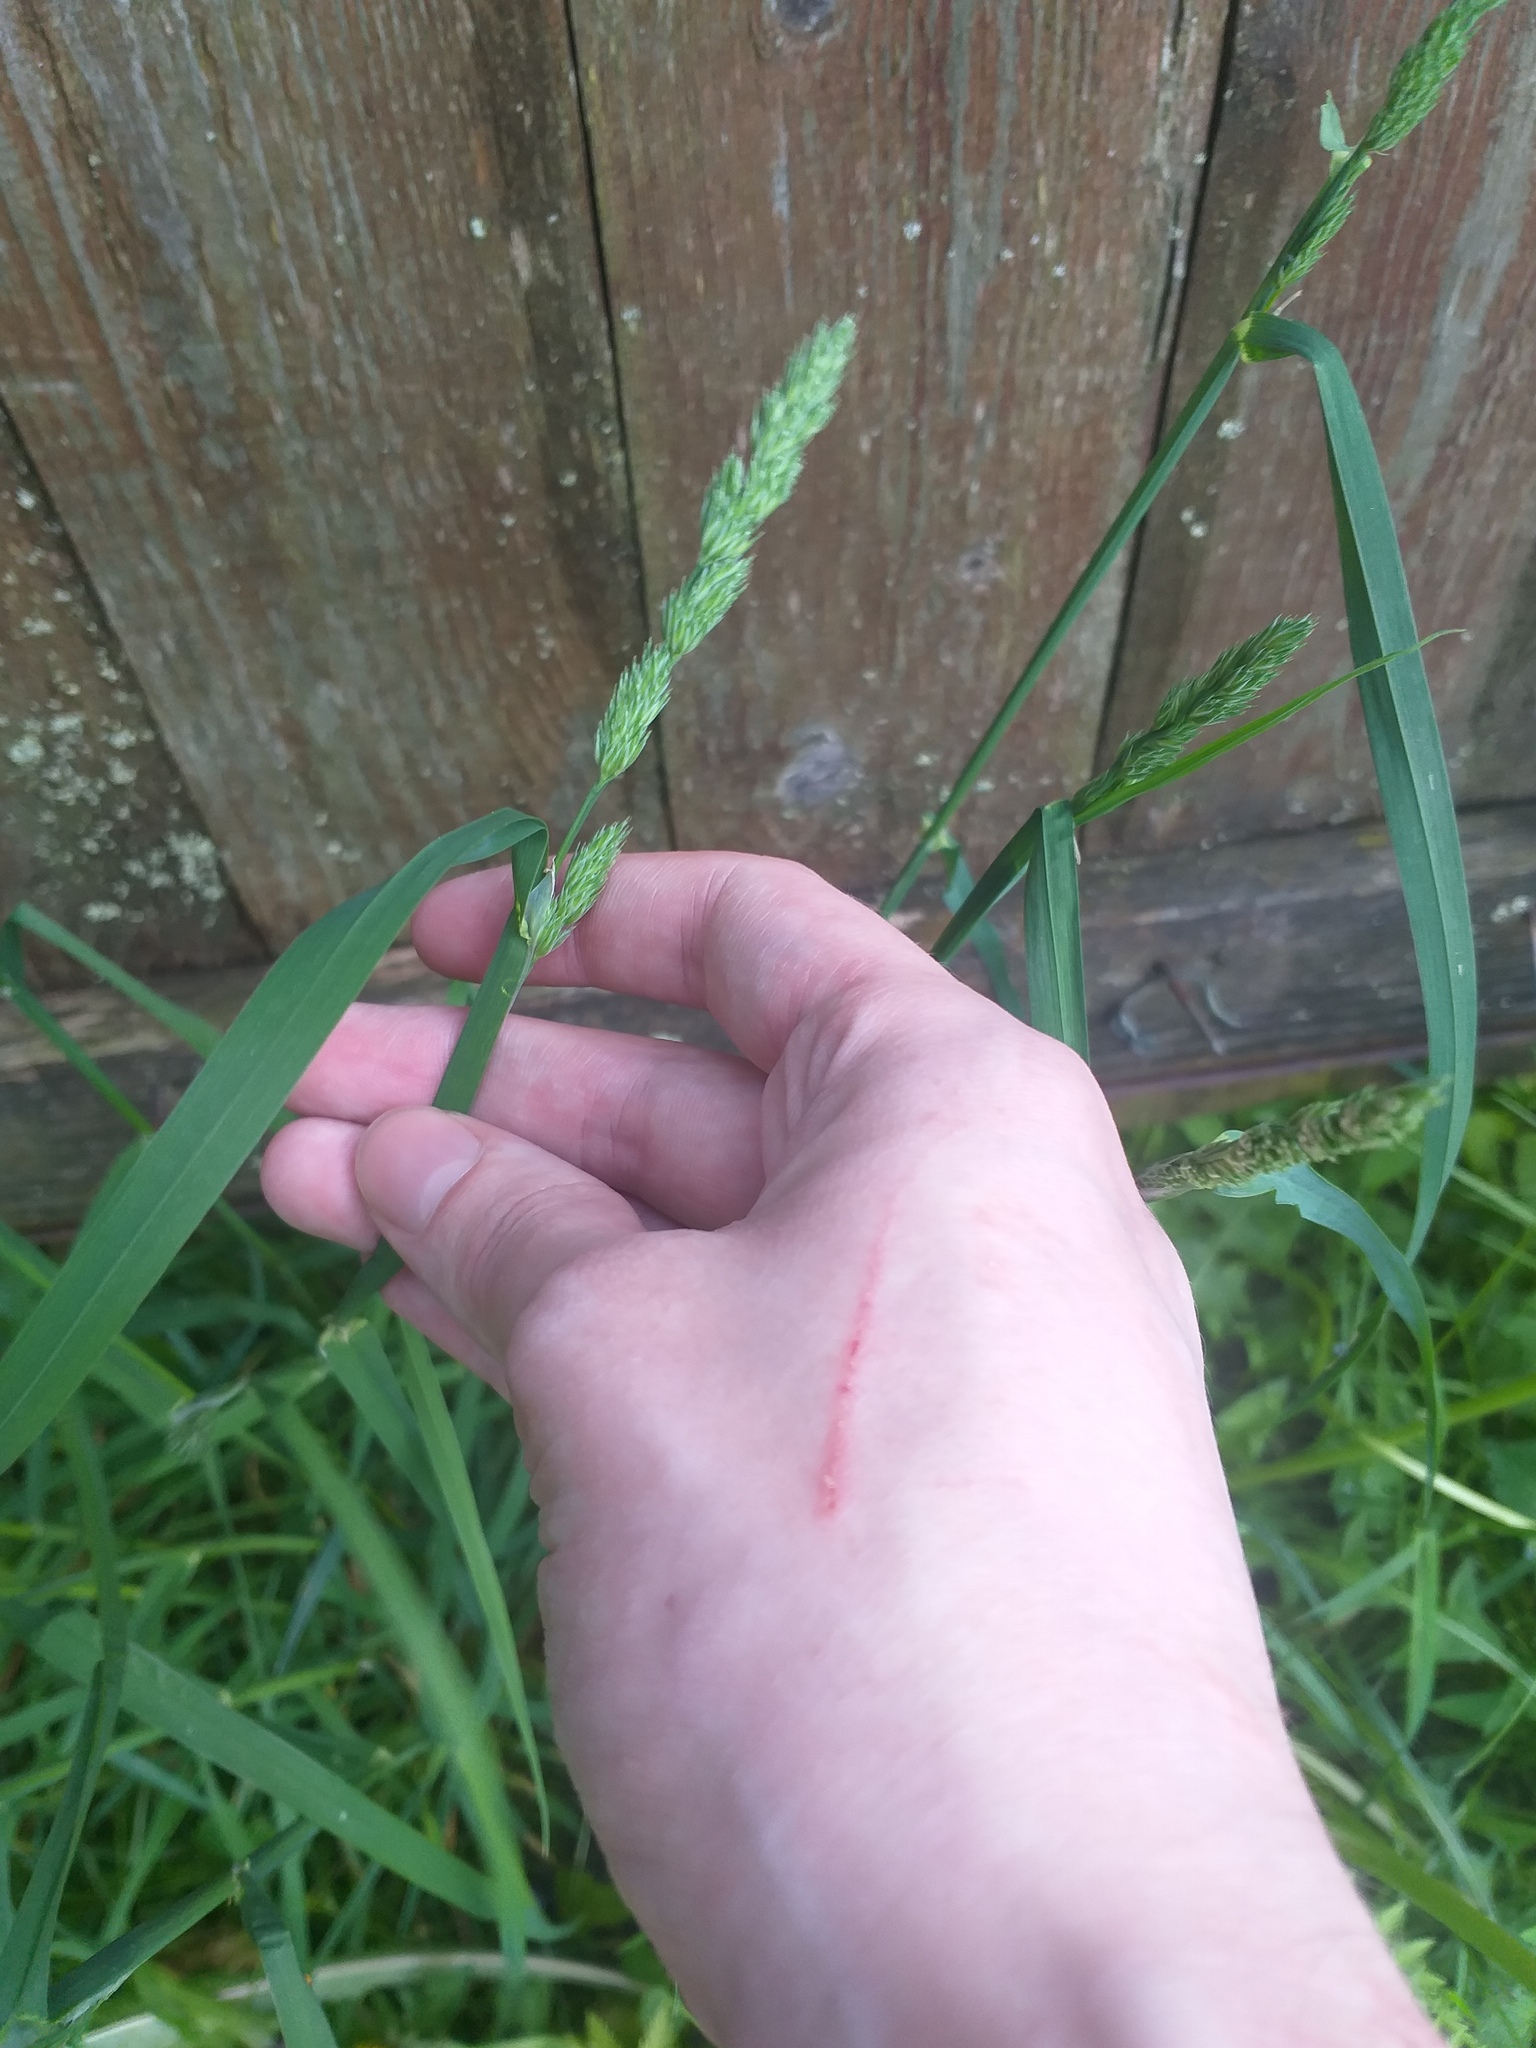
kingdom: Plantae
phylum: Tracheophyta
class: Liliopsida
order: Poales
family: Poaceae
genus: Dactylis
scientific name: Dactylis glomerata
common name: Orchardgrass
